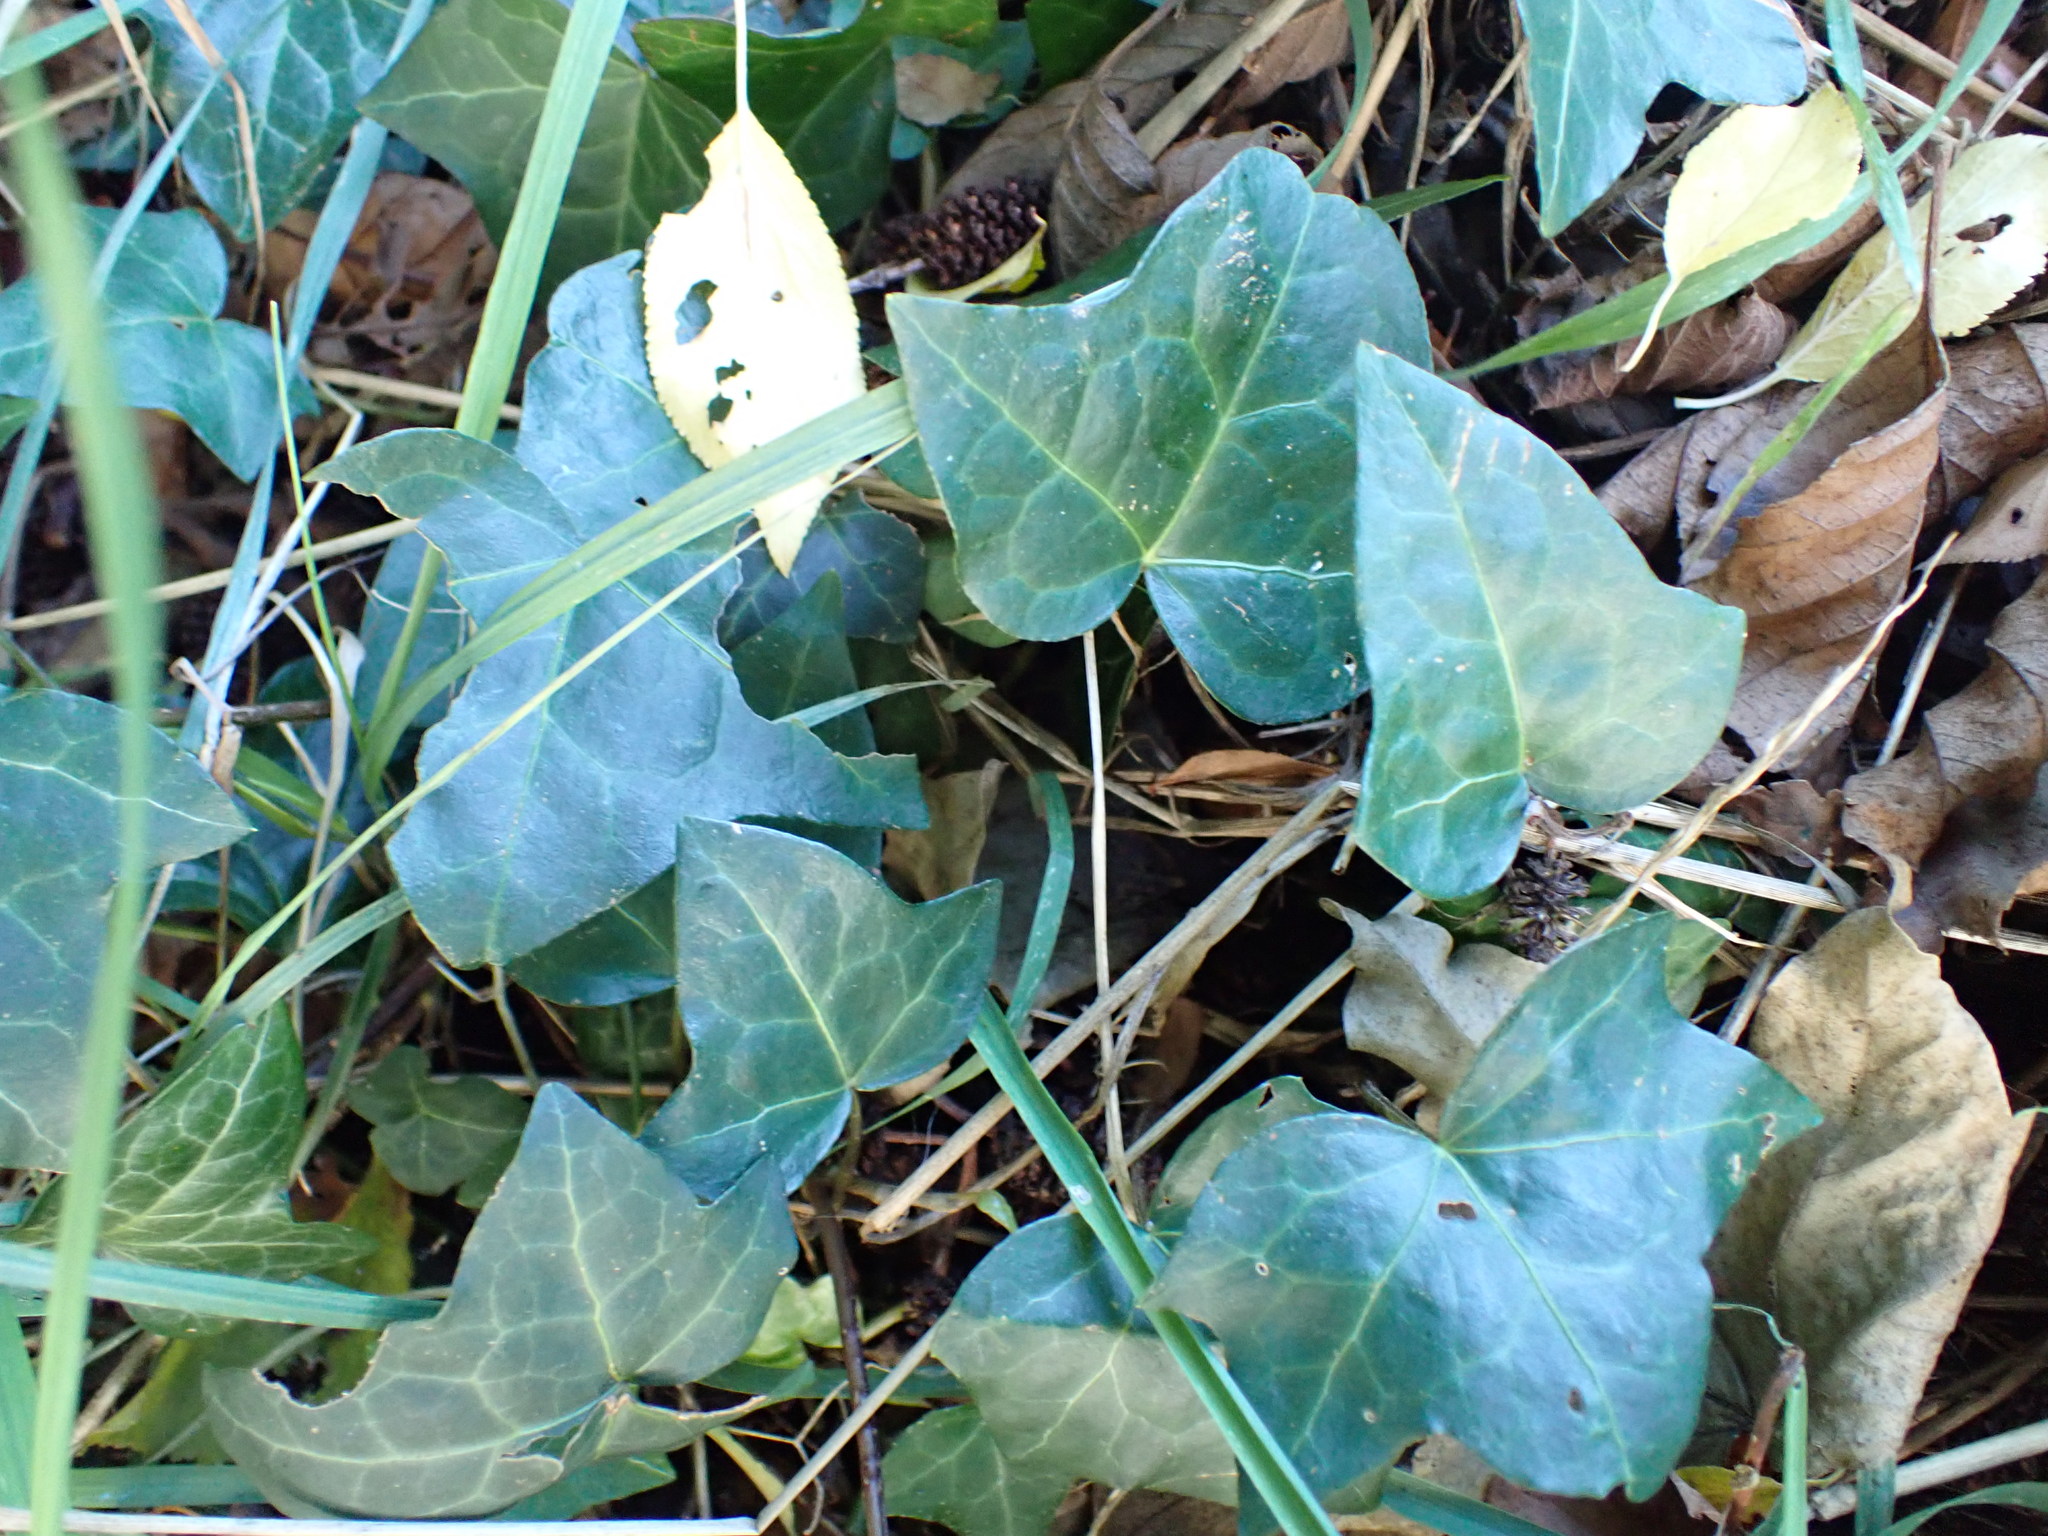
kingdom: Plantae
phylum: Tracheophyta
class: Magnoliopsida
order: Apiales
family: Araliaceae
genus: Hedera
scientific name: Hedera helix
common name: Ivy
